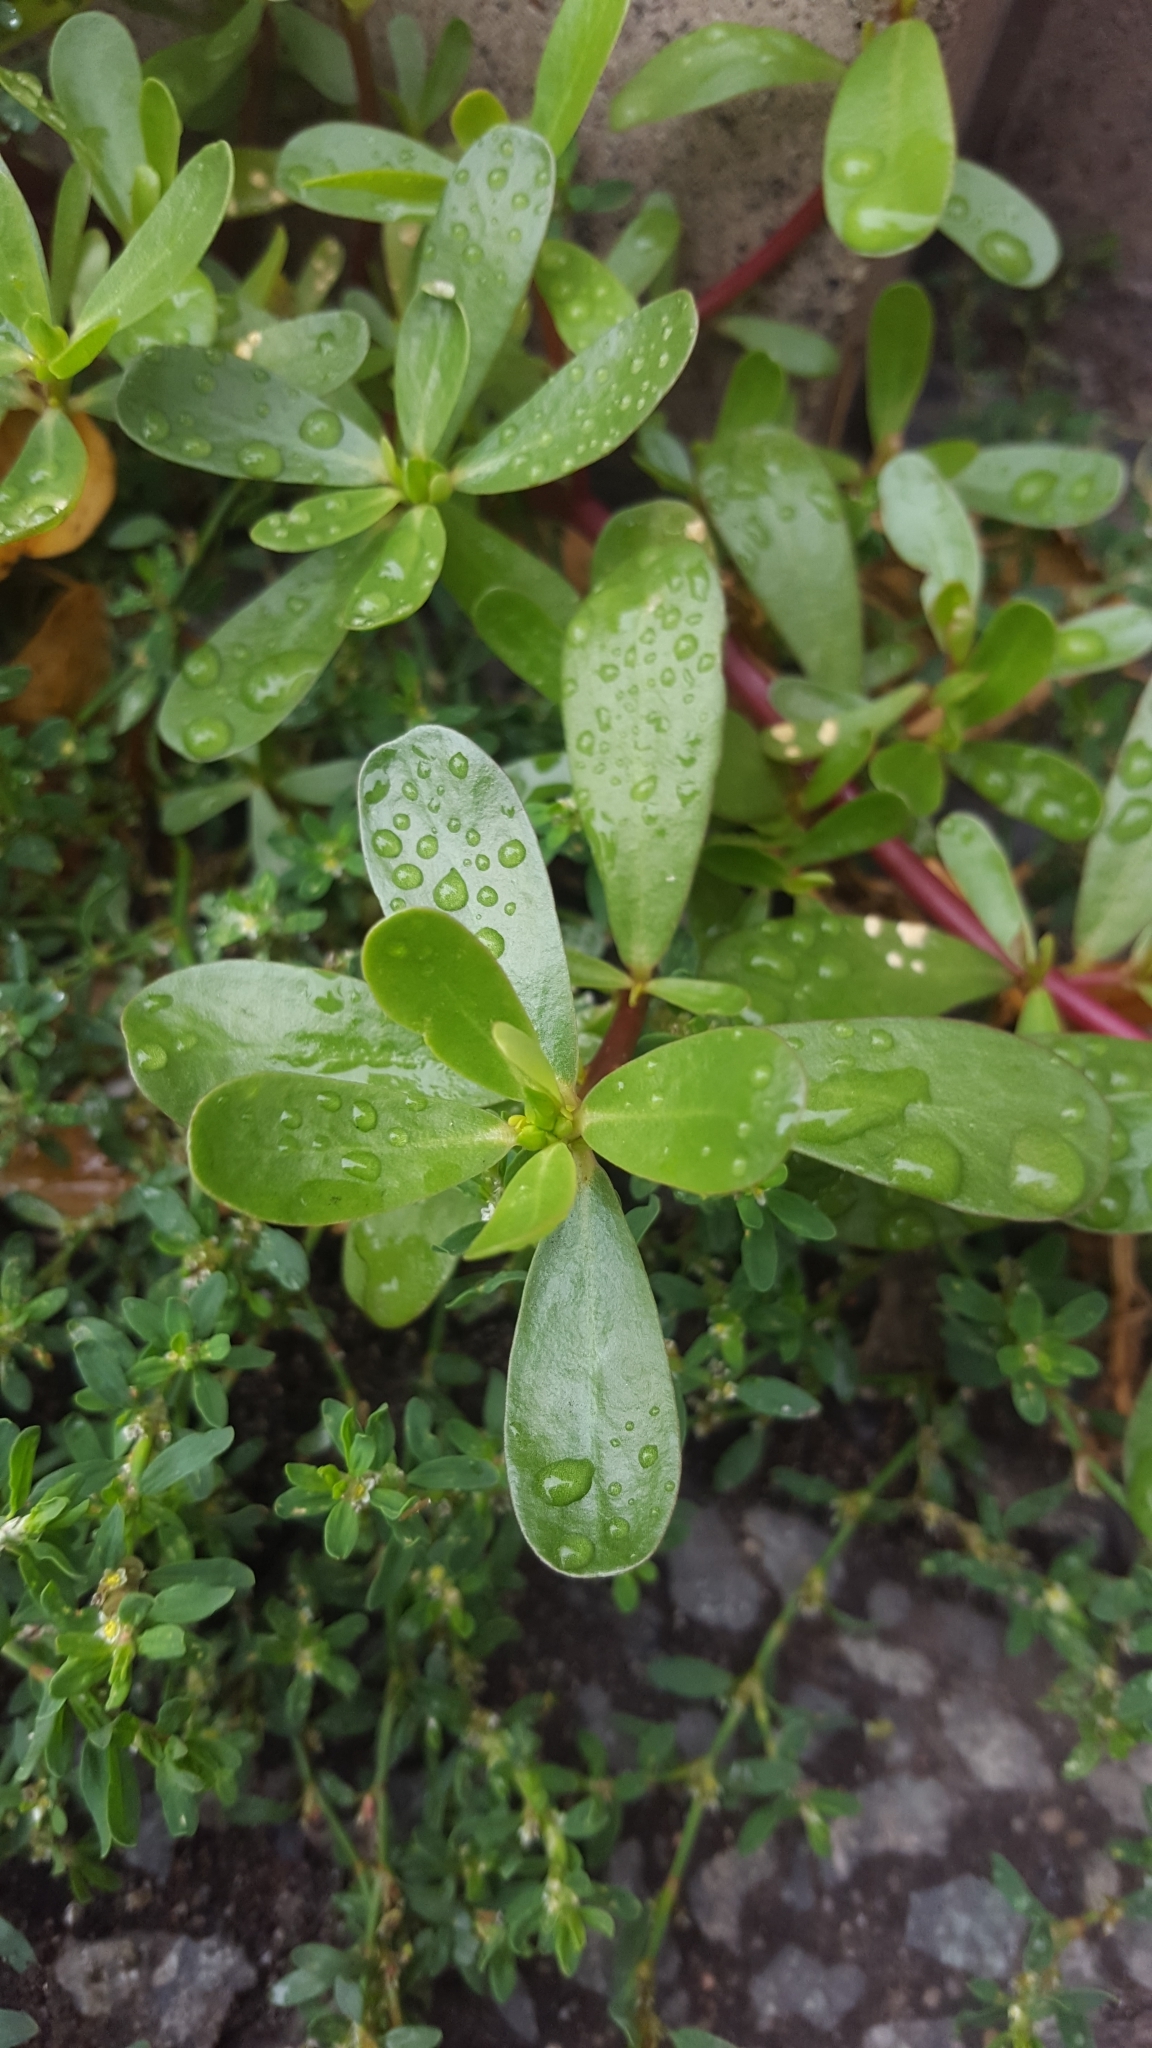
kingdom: Plantae
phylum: Tracheophyta
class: Magnoliopsida
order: Caryophyllales
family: Portulacaceae
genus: Portulaca
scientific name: Portulaca oleracea
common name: Common purslane
